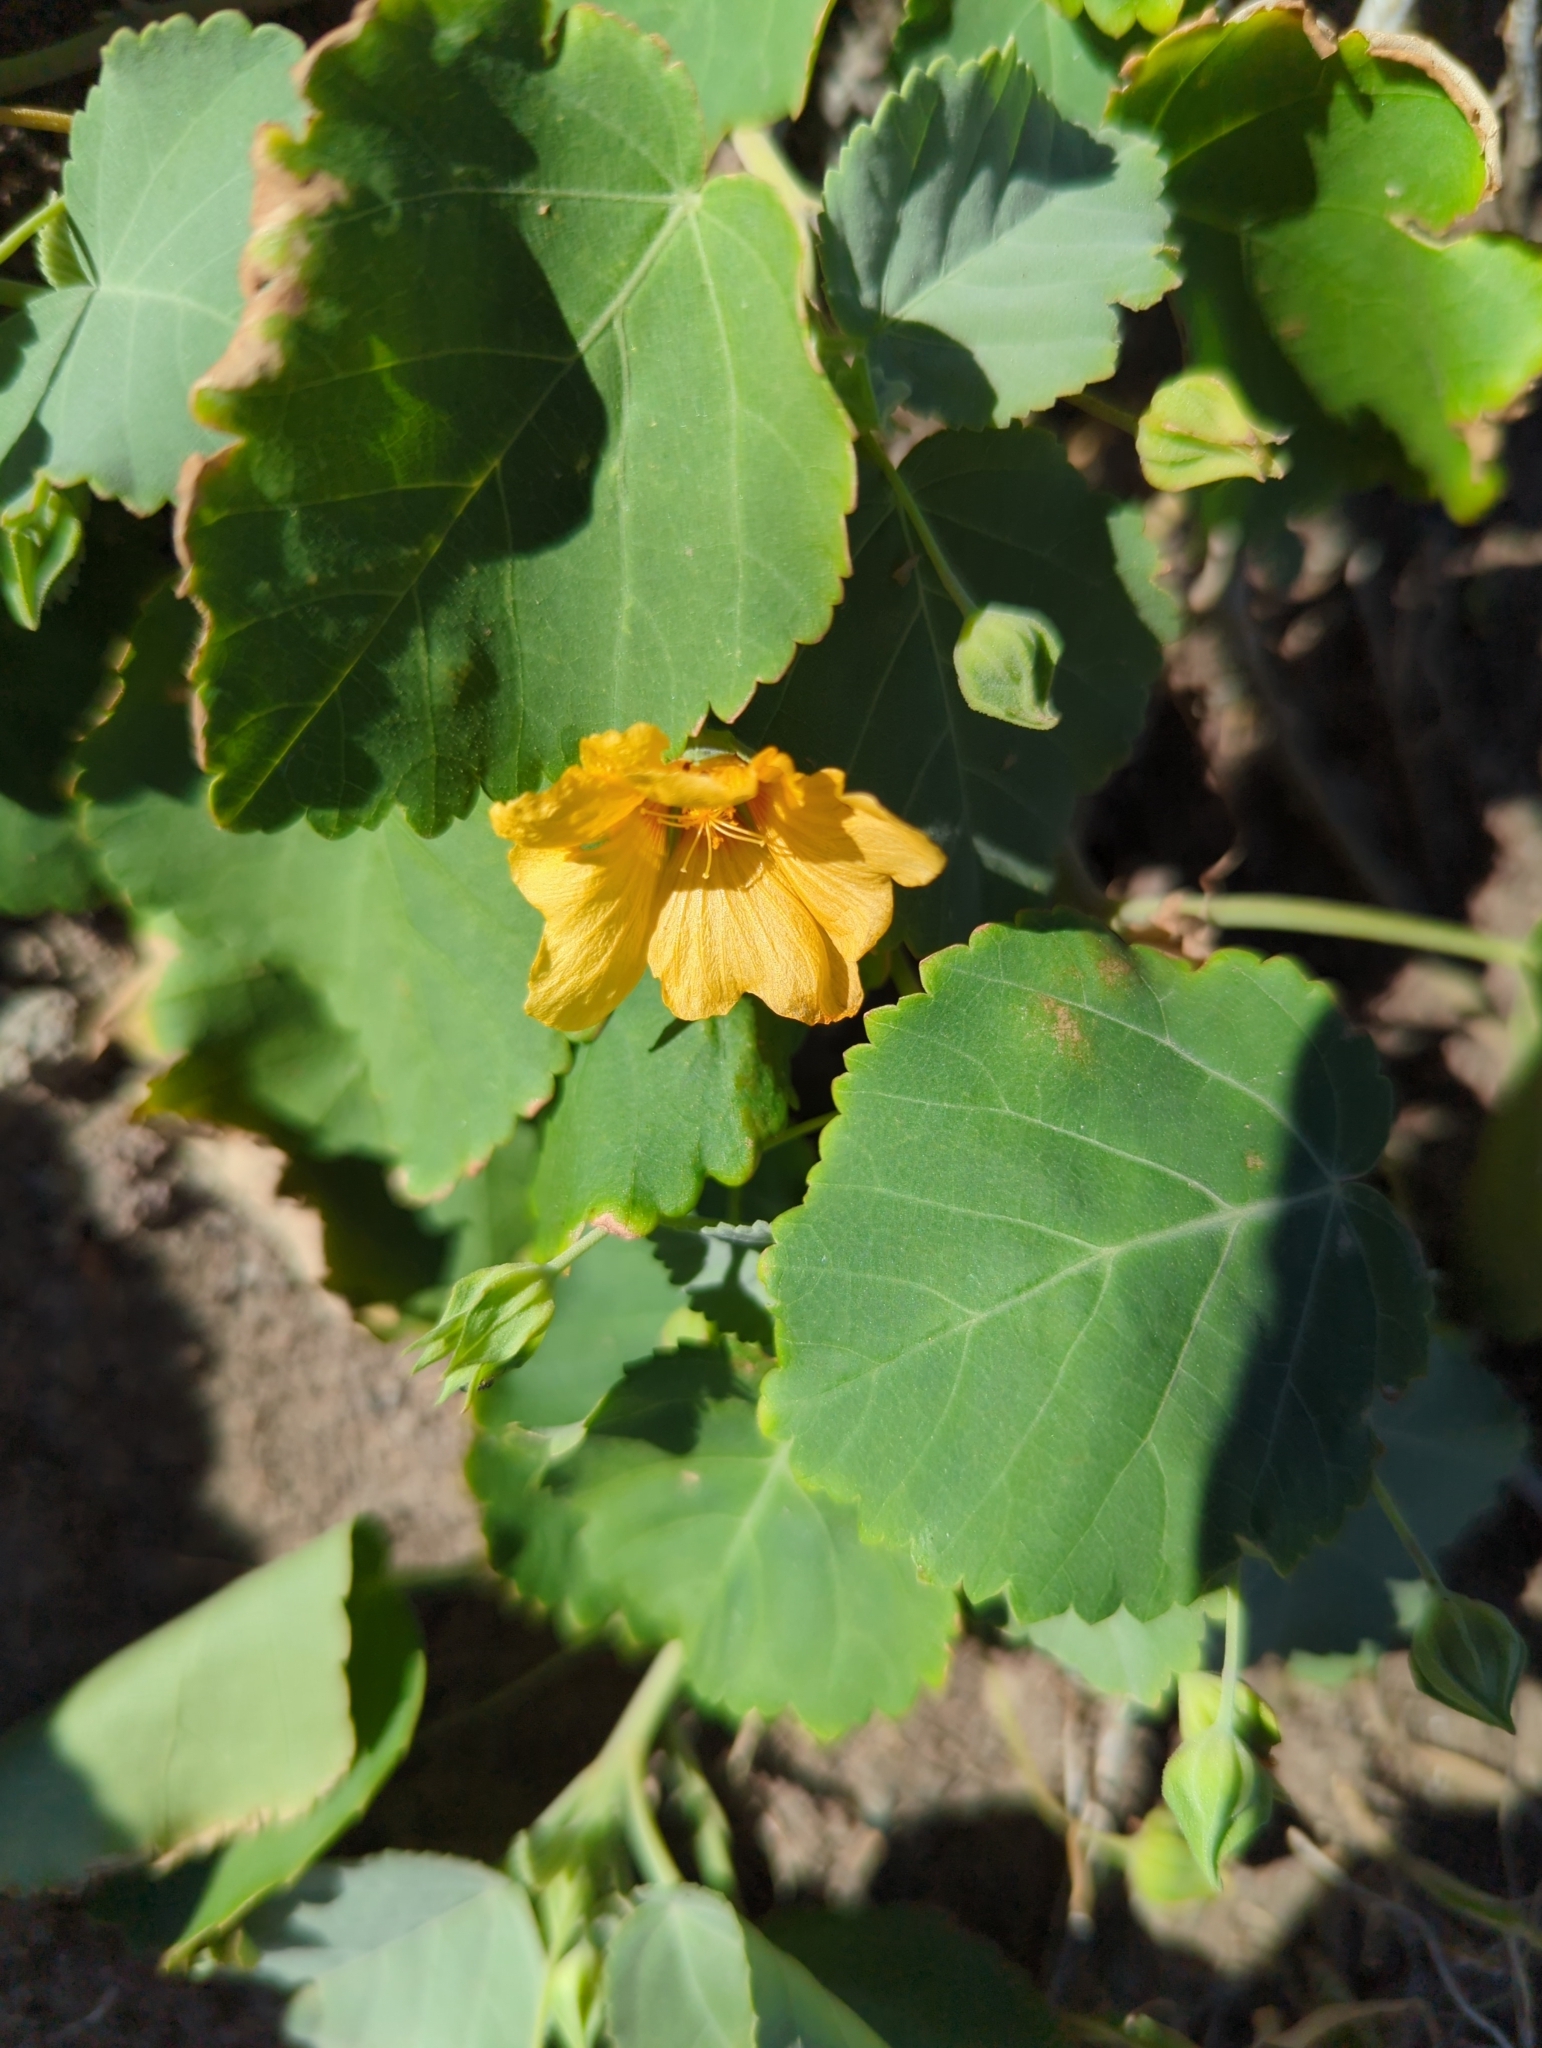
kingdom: Plantae
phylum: Tracheophyta
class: Magnoliopsida
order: Malvales
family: Malvaceae
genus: Sida
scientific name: Sida fallax
